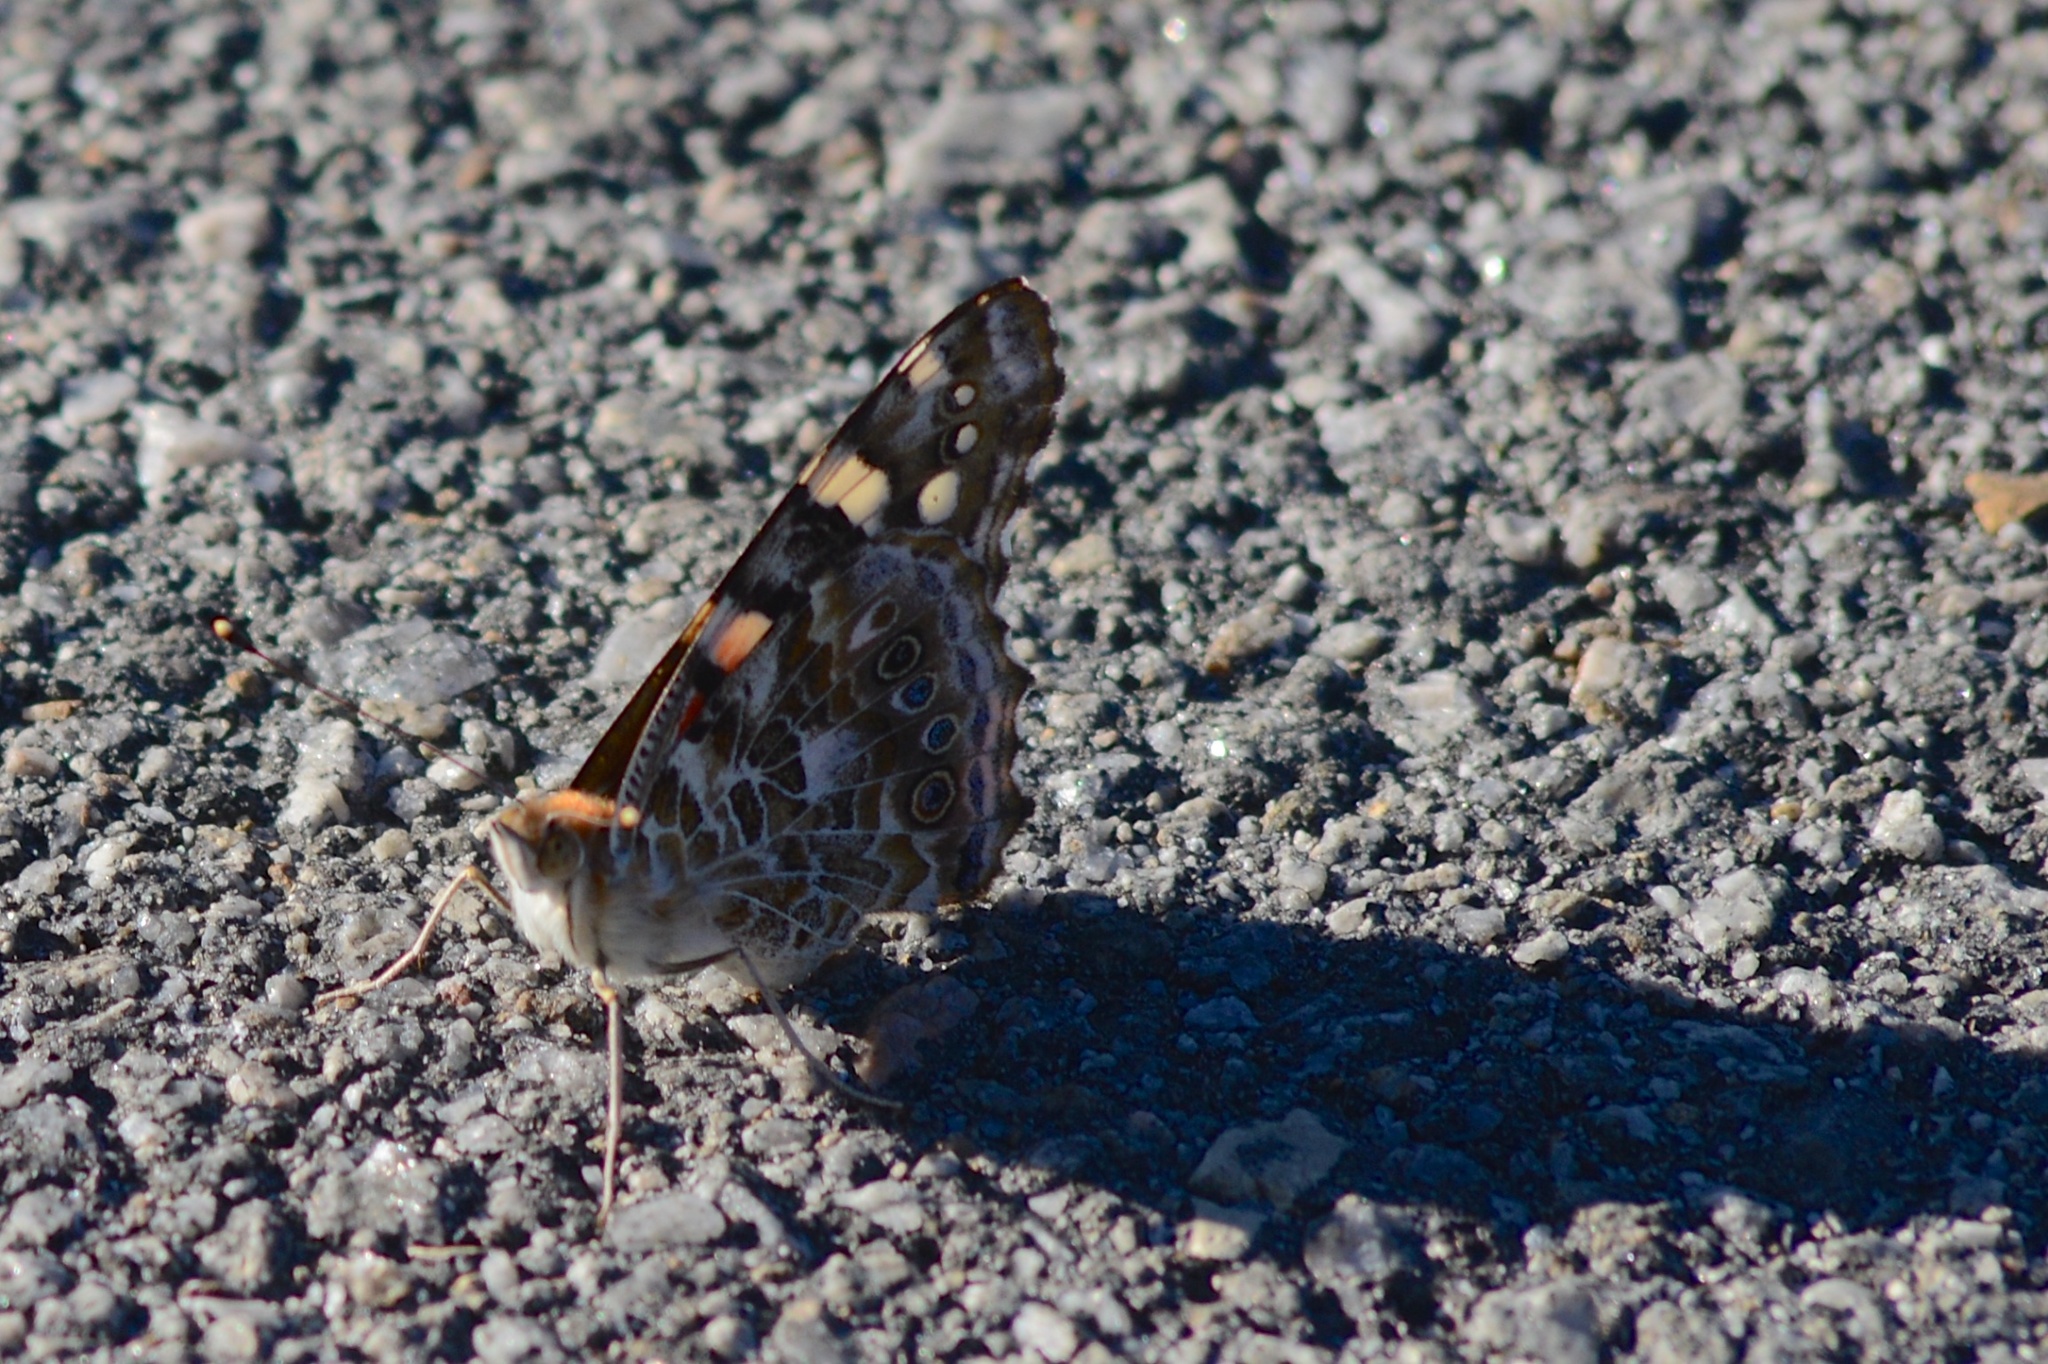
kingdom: Animalia
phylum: Arthropoda
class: Insecta
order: Lepidoptera
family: Nymphalidae
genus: Vanessa
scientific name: Vanessa cardui
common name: Painted lady
